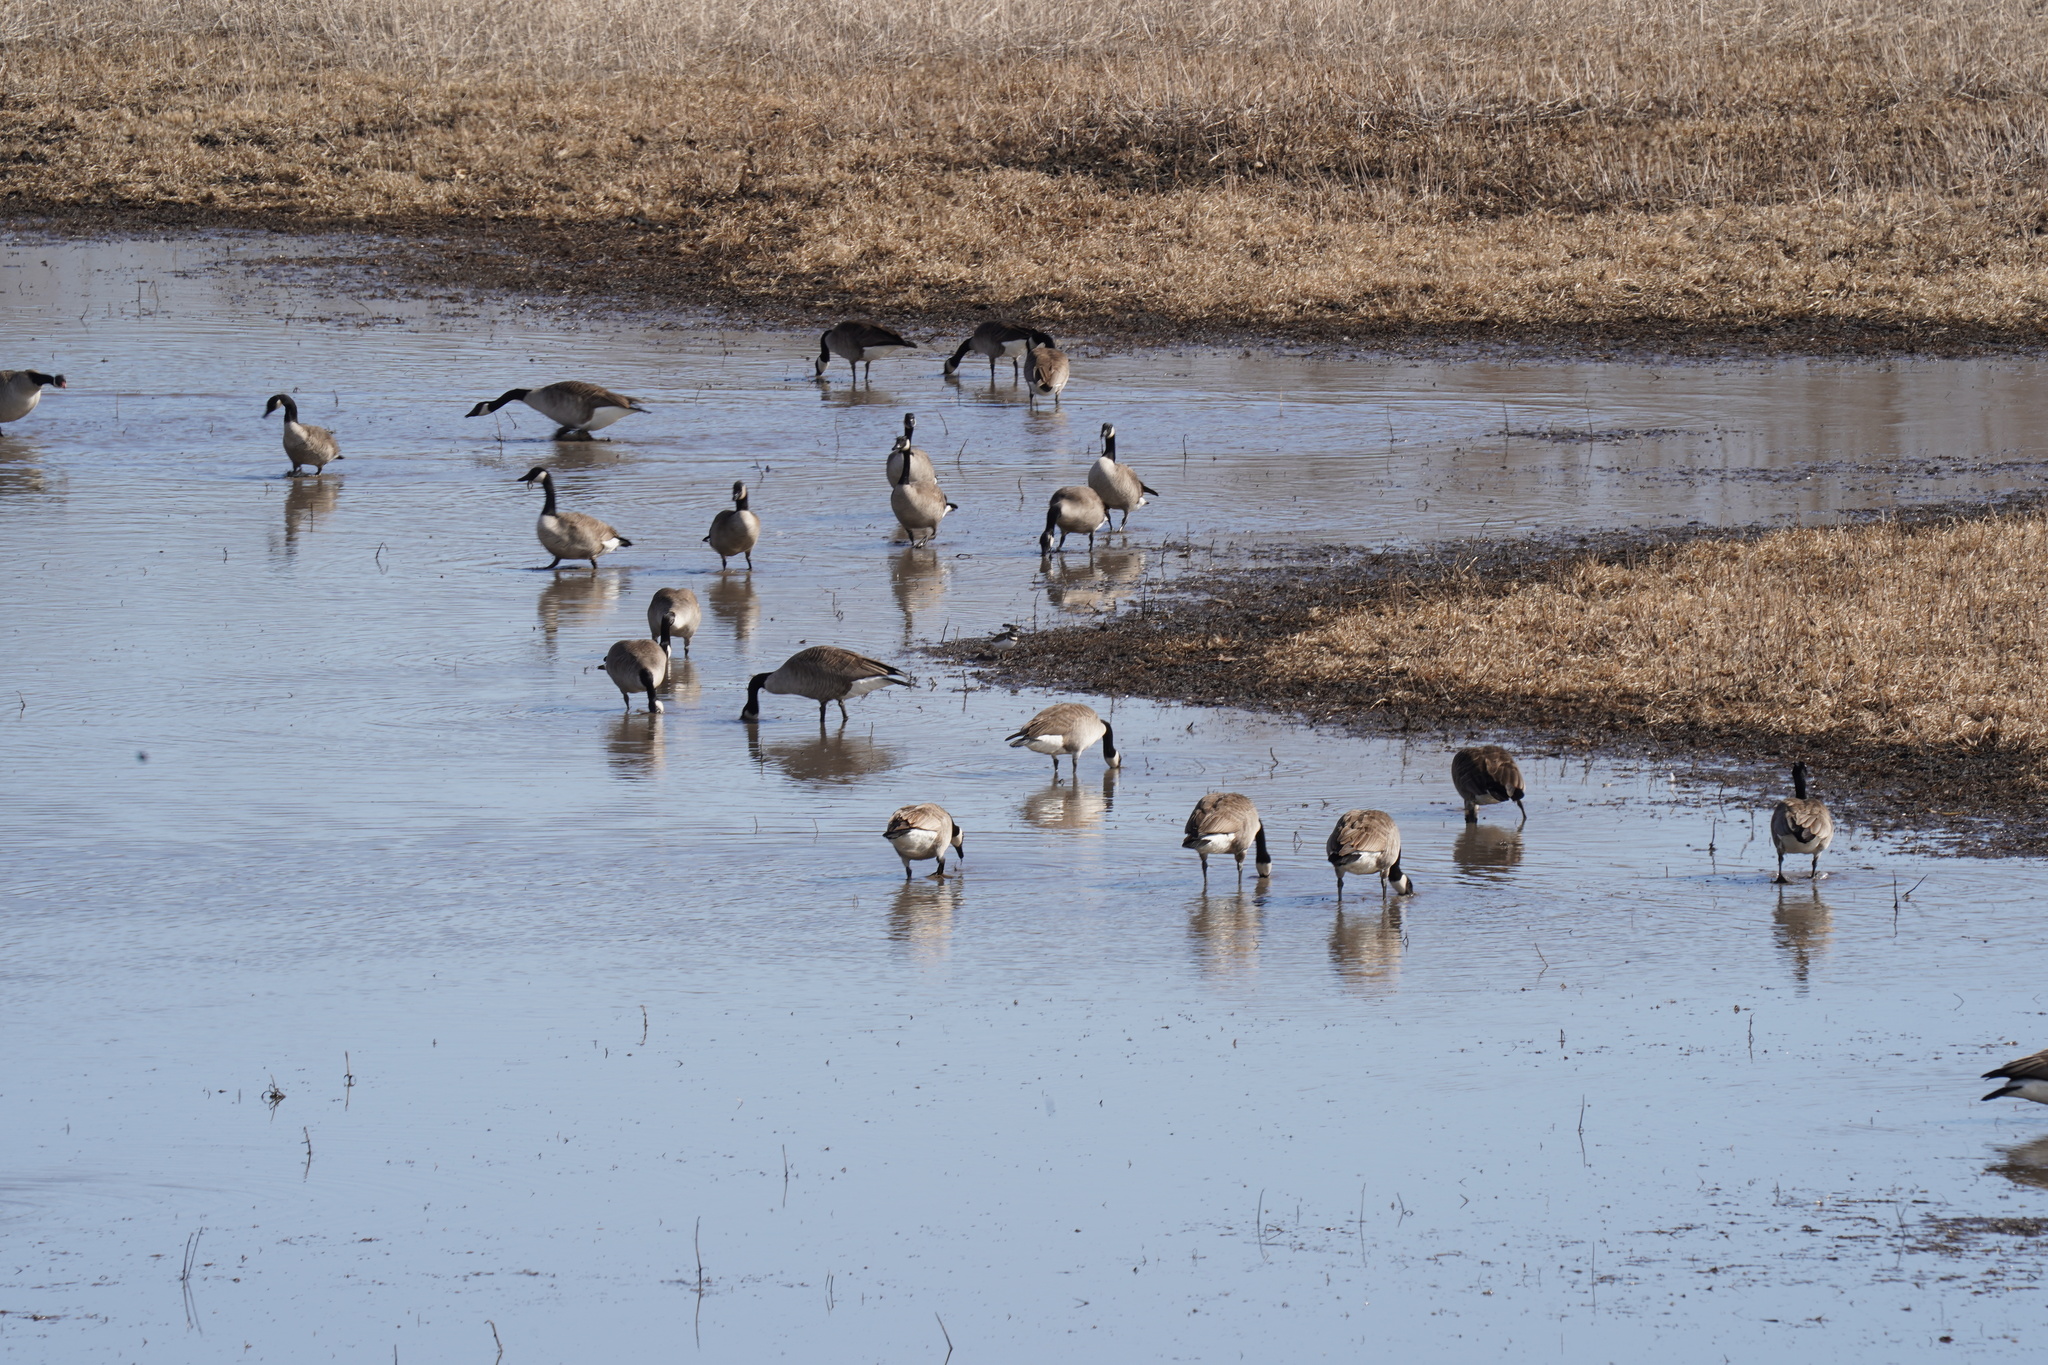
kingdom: Animalia
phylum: Chordata
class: Aves
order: Anseriformes
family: Anatidae
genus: Branta
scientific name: Branta canadensis
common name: Canada goose
